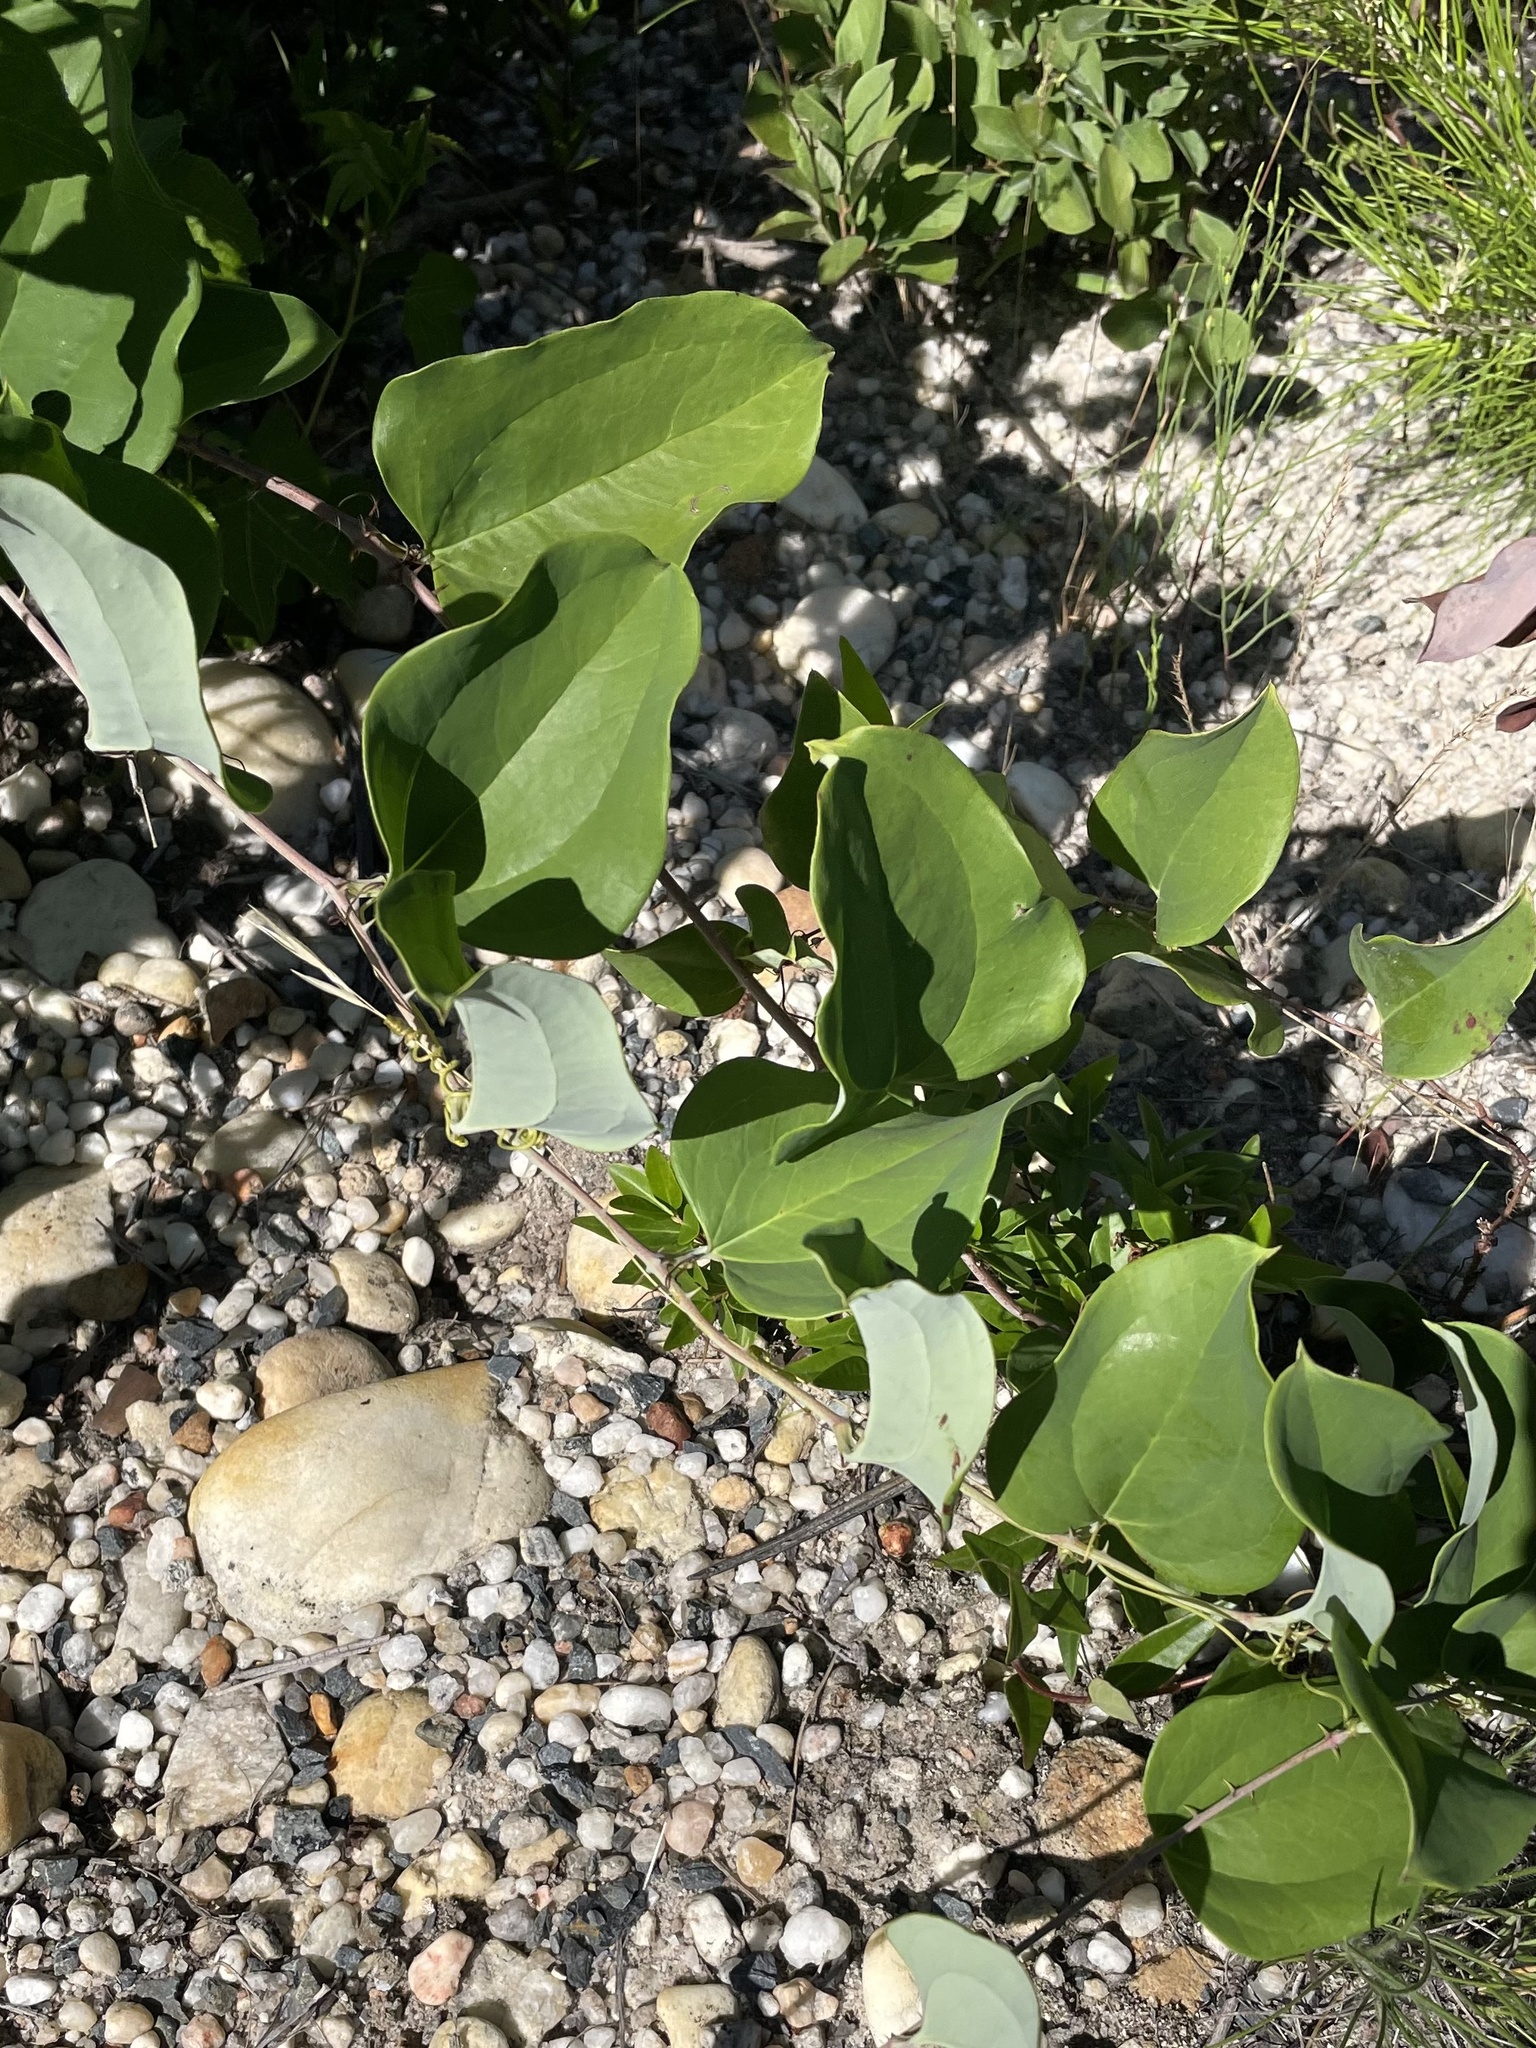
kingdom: Plantae
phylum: Tracheophyta
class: Liliopsida
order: Liliales
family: Smilacaceae
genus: Smilax
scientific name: Smilax glauca
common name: Cat greenbrier
